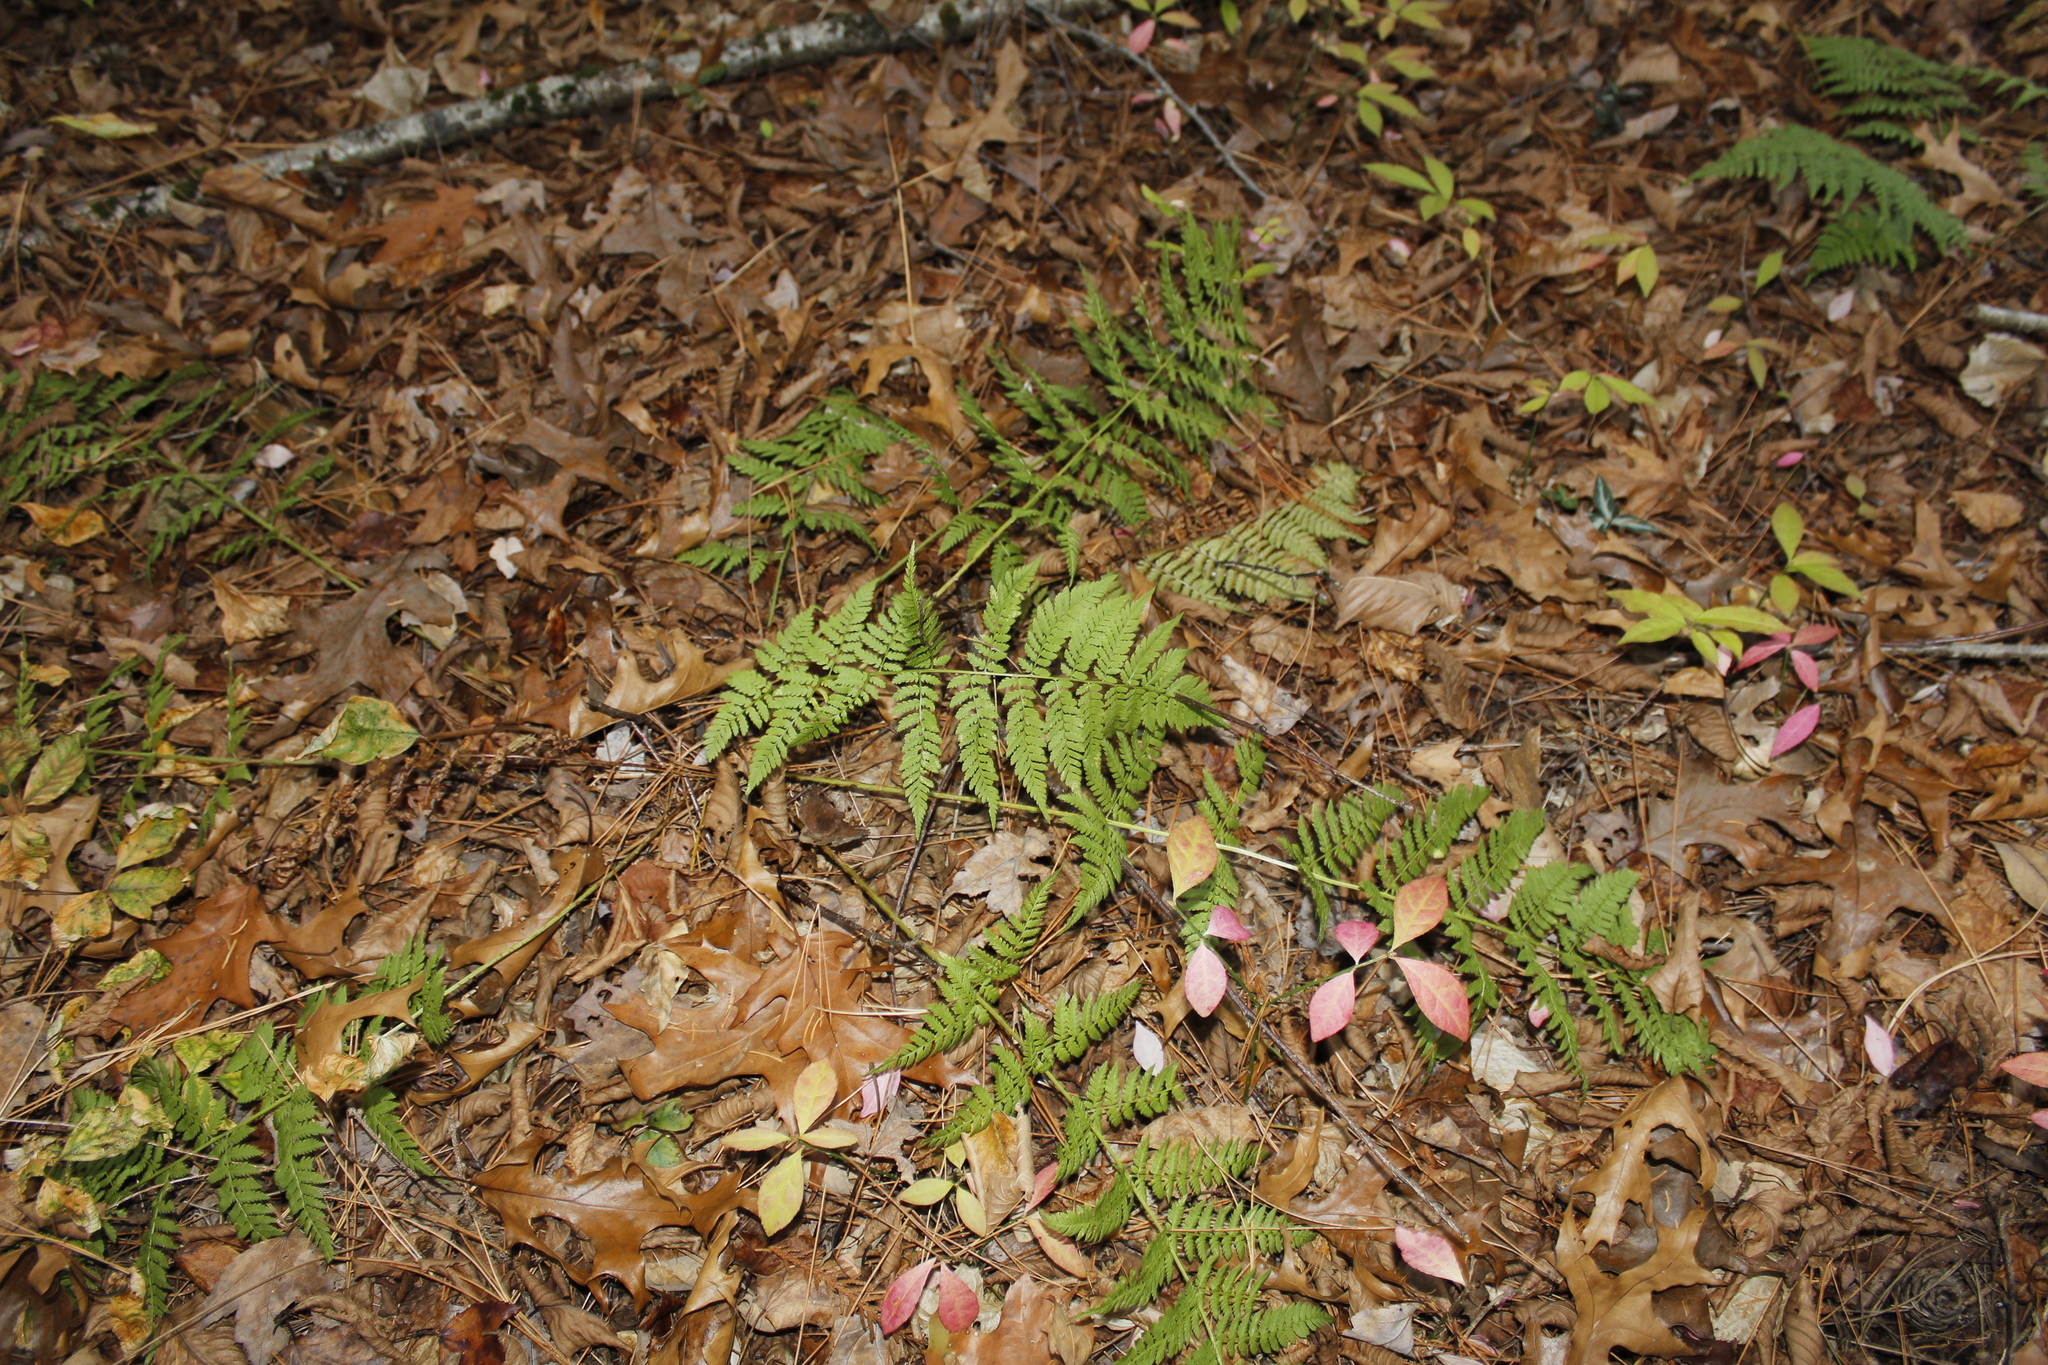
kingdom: Plantae
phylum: Tracheophyta
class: Polypodiopsida
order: Polypodiales
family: Dryopteridaceae
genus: Dryopteris
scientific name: Dryopteris carthusiana
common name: Narrow buckler-fern
